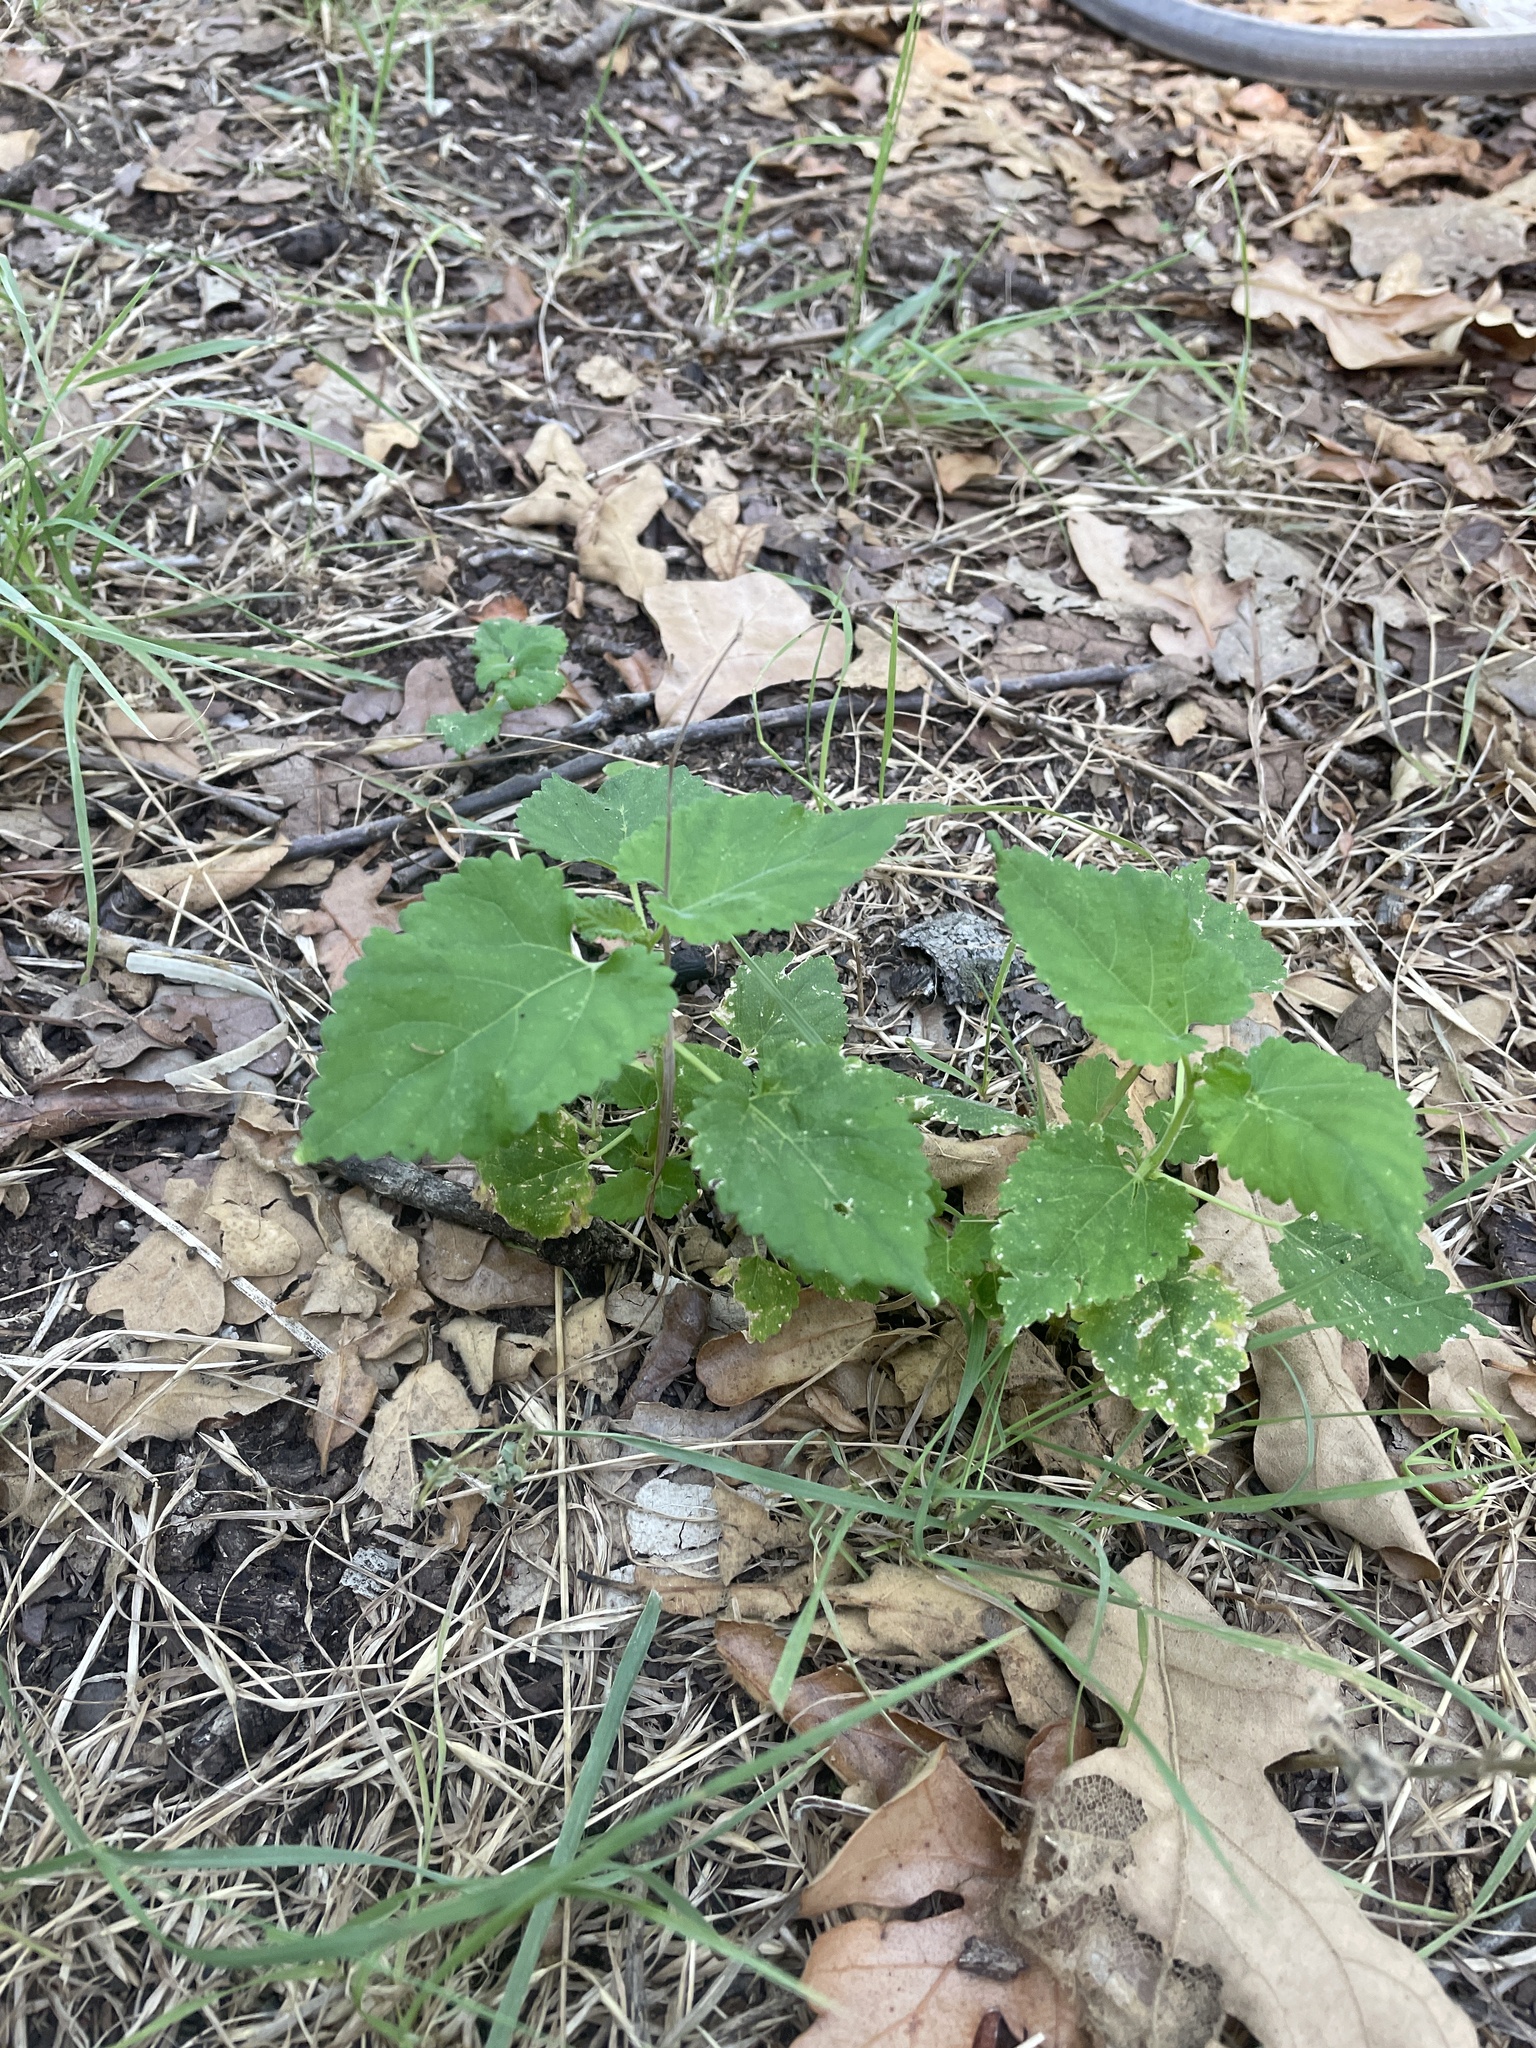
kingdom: Plantae
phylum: Tracheophyta
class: Magnoliopsida
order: Rosales
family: Moraceae
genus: Fatoua
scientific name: Fatoua villosa
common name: Hairy crabweed
